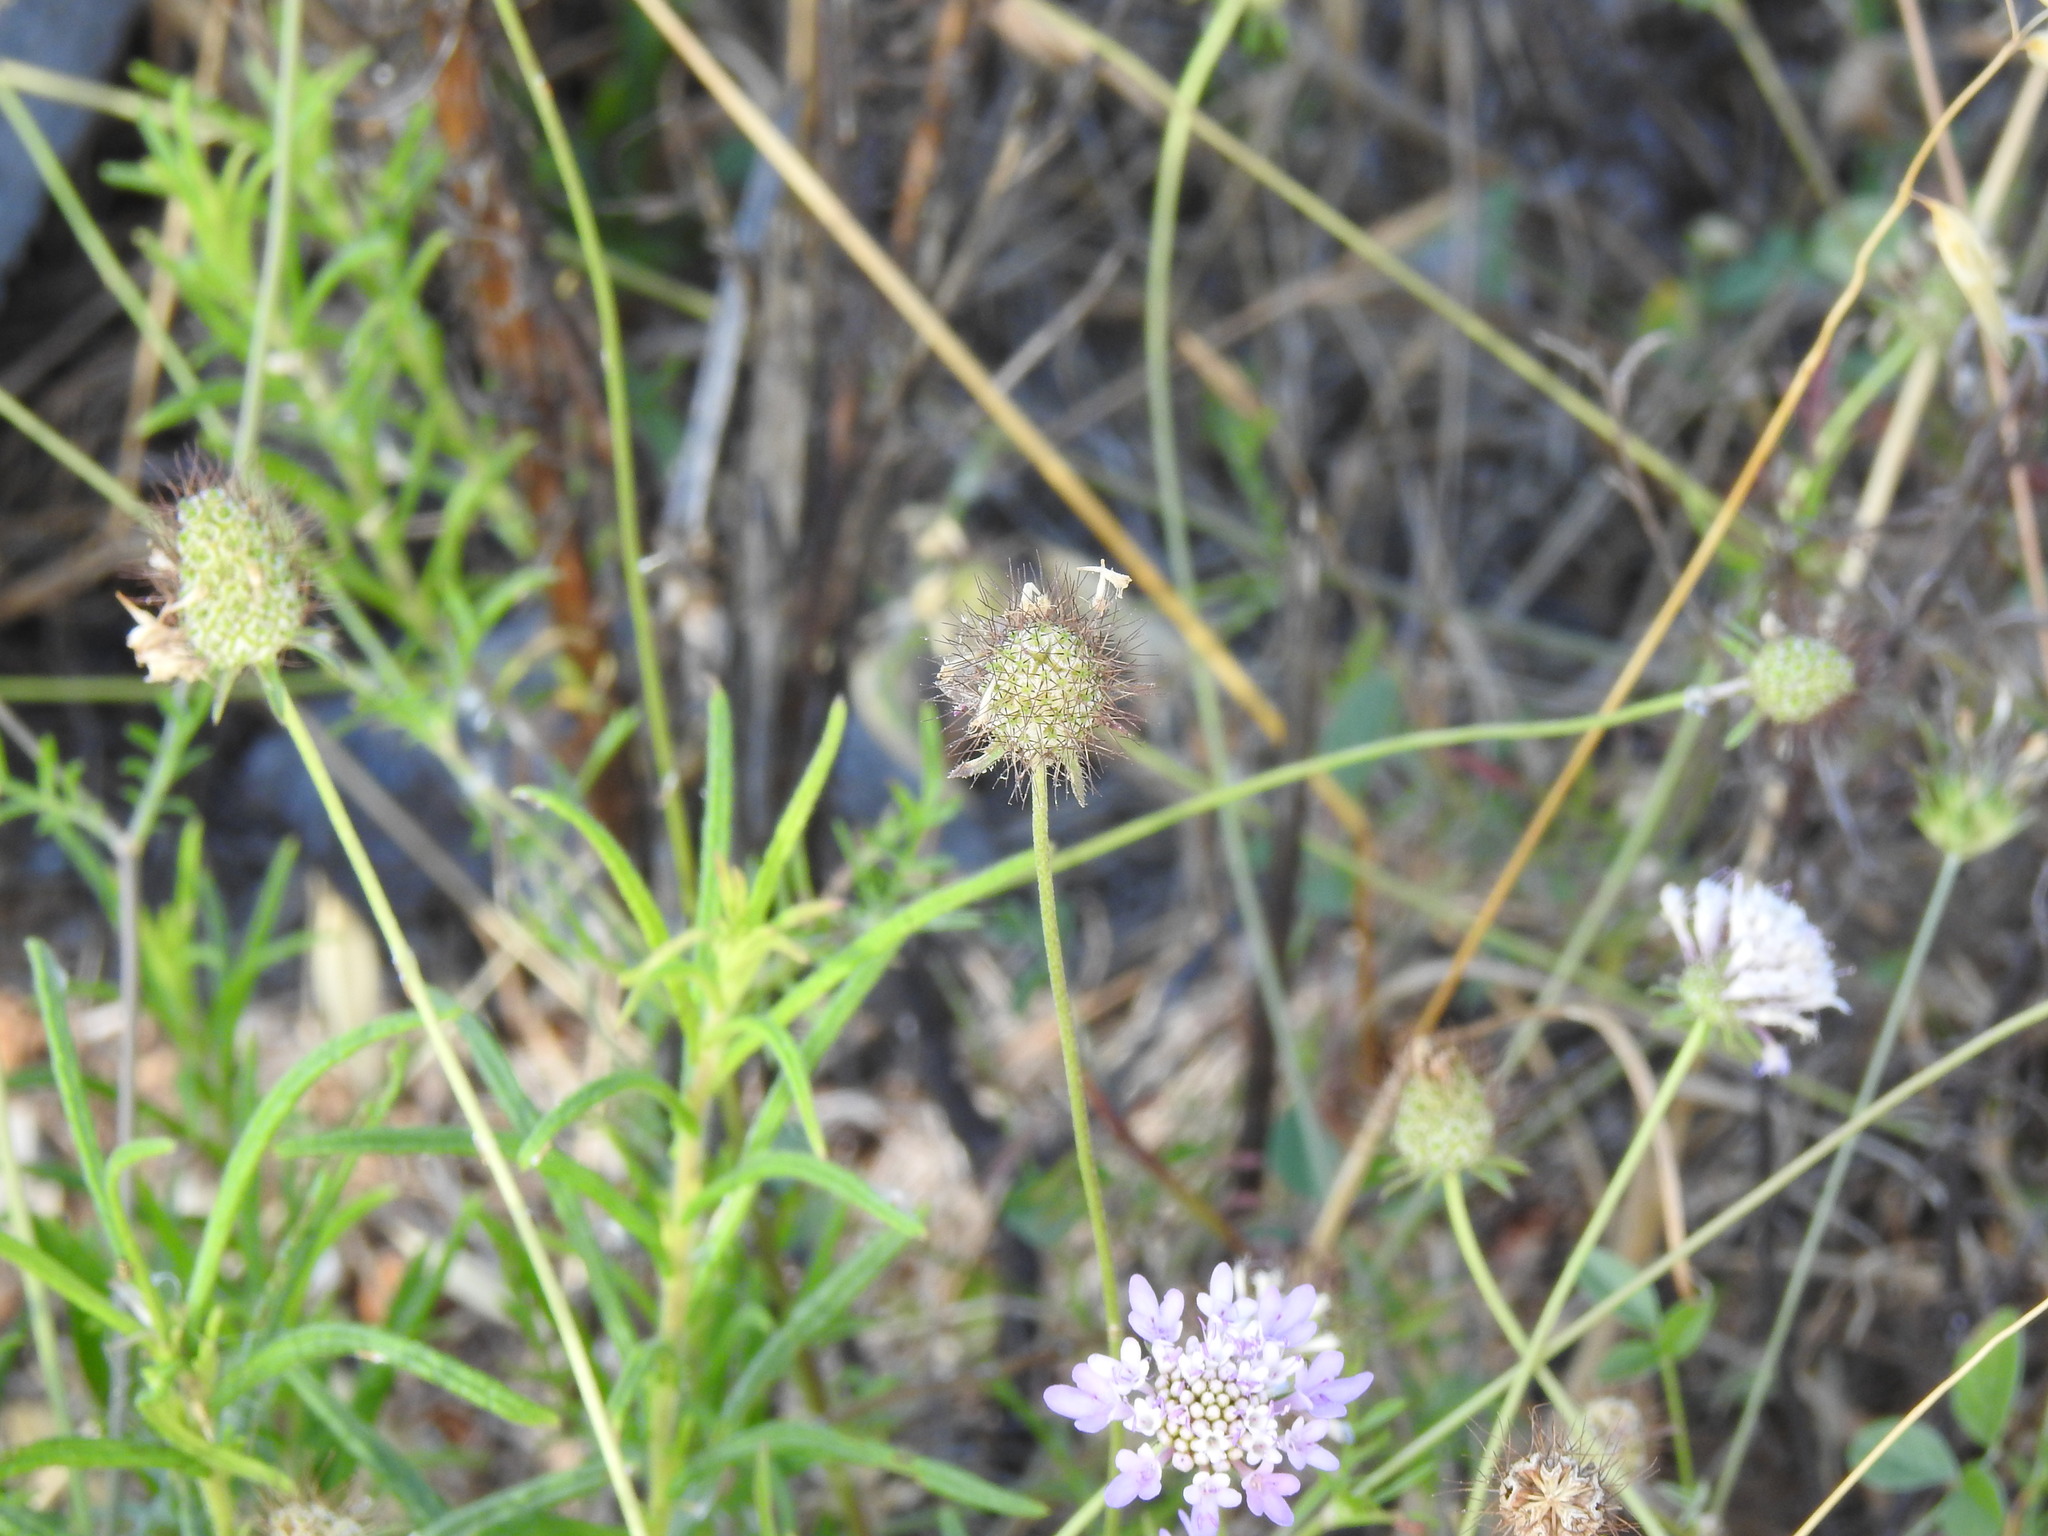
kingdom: Plantae
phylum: Tracheophyta
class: Magnoliopsida
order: Dipsacales
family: Caprifoliaceae
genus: Sixalix
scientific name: Sixalix atropurpurea
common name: Sweet scabious
